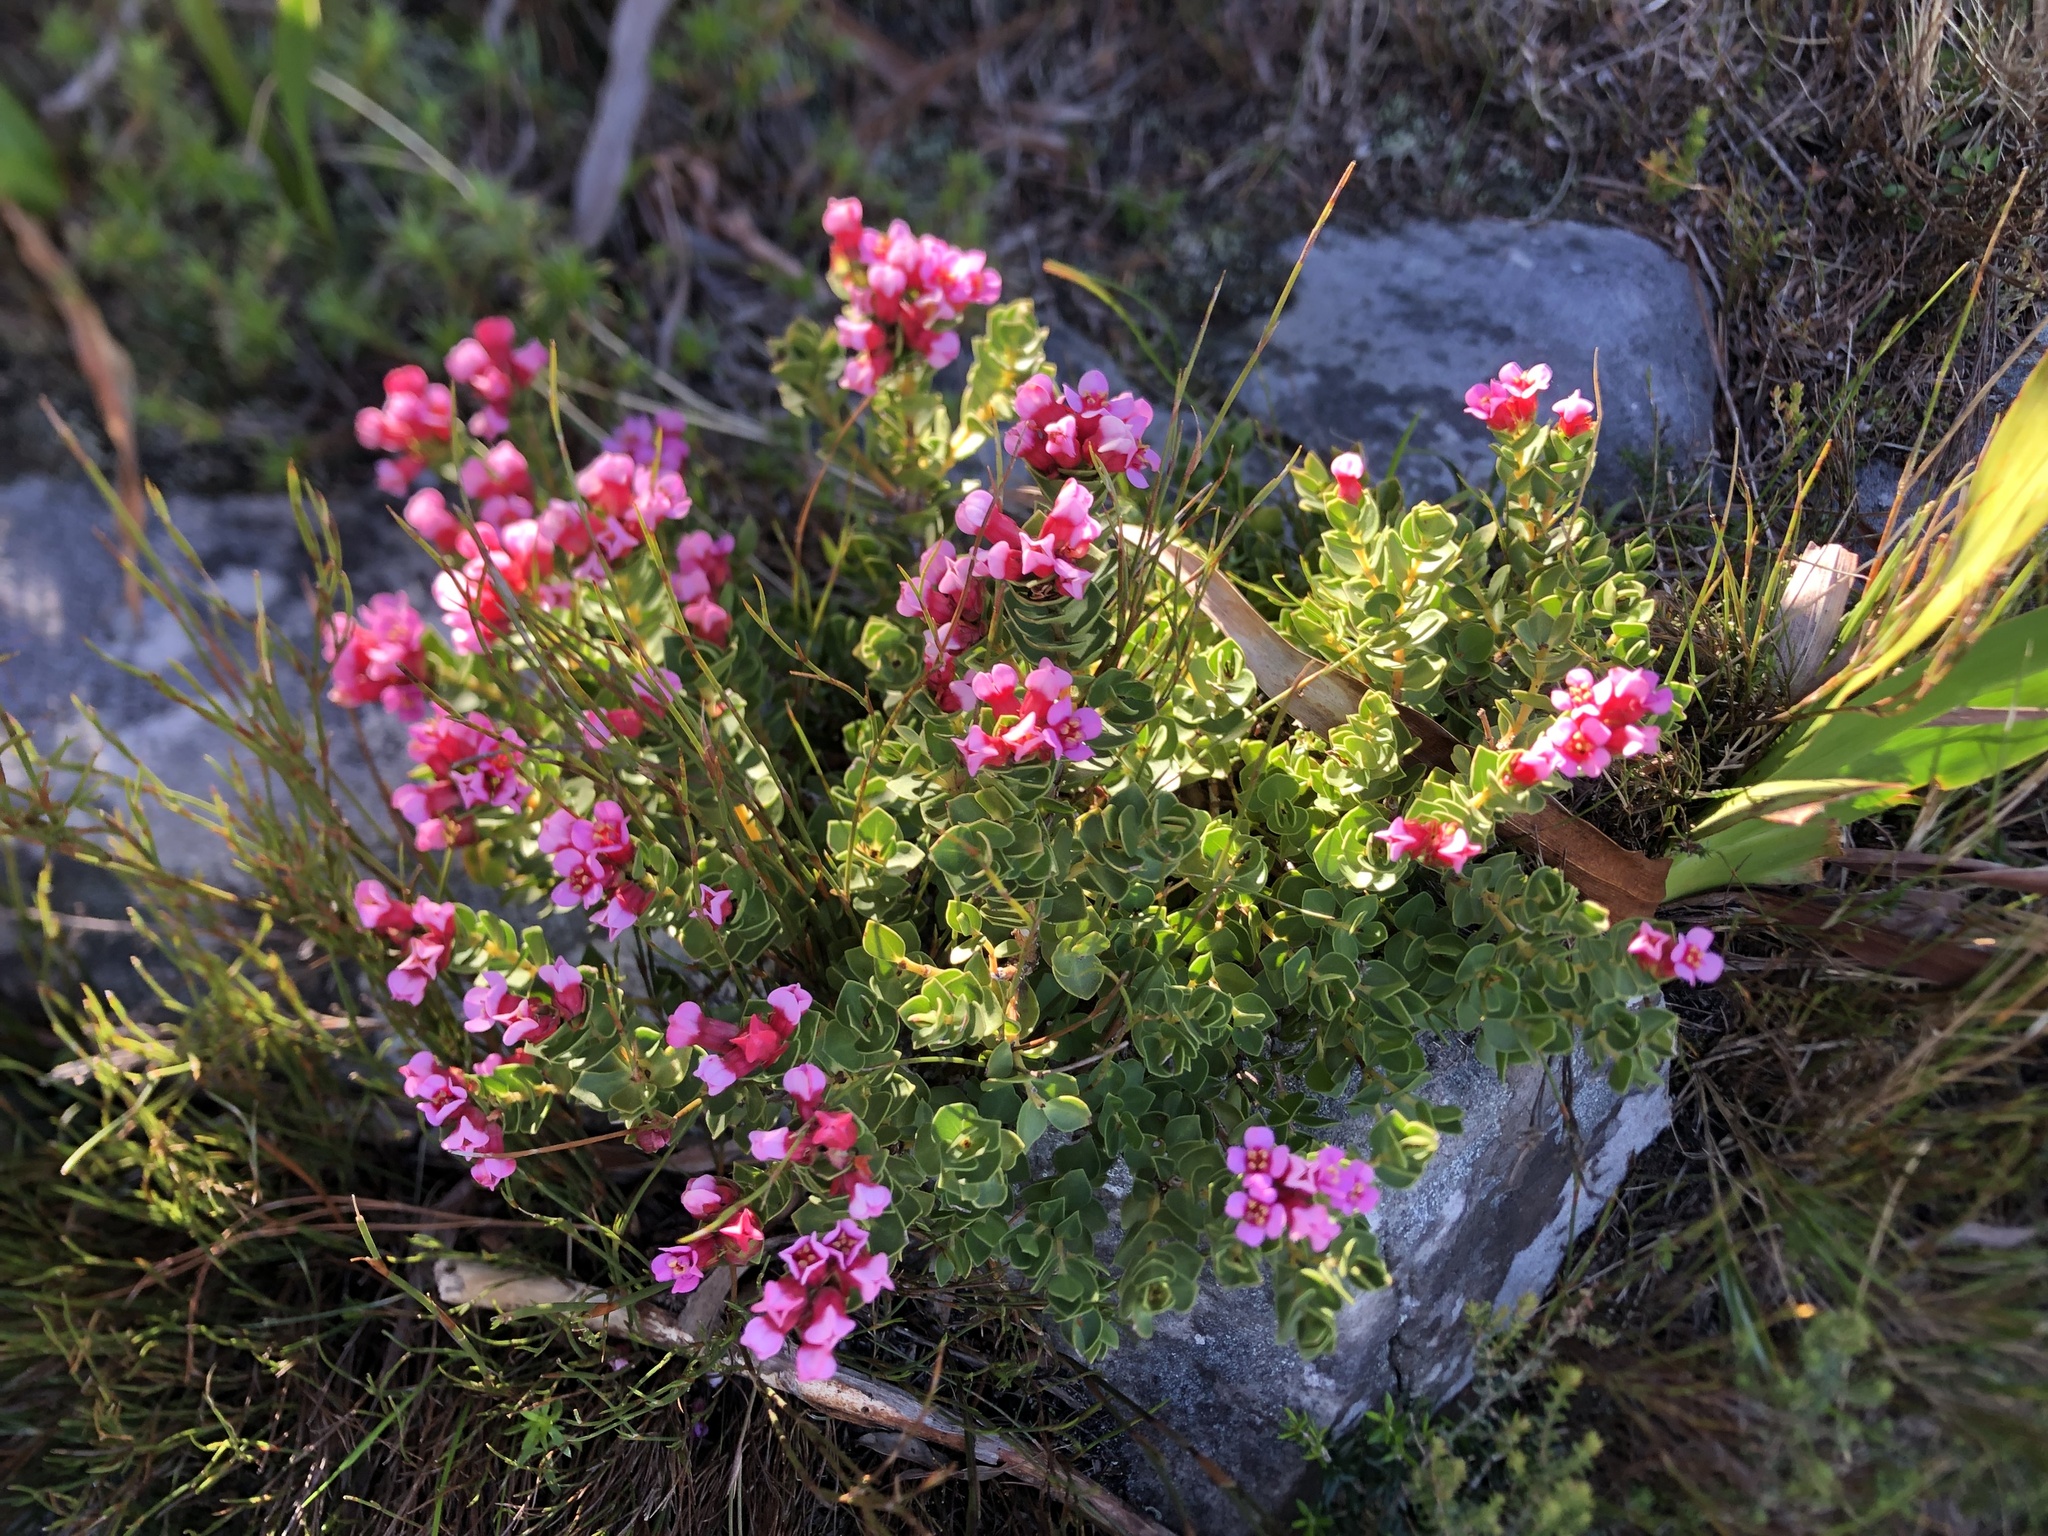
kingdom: Plantae
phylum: Tracheophyta
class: Magnoliopsida
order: Myrtales
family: Penaeaceae
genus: Brachysiphon
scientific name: Brachysiphon fucatus
